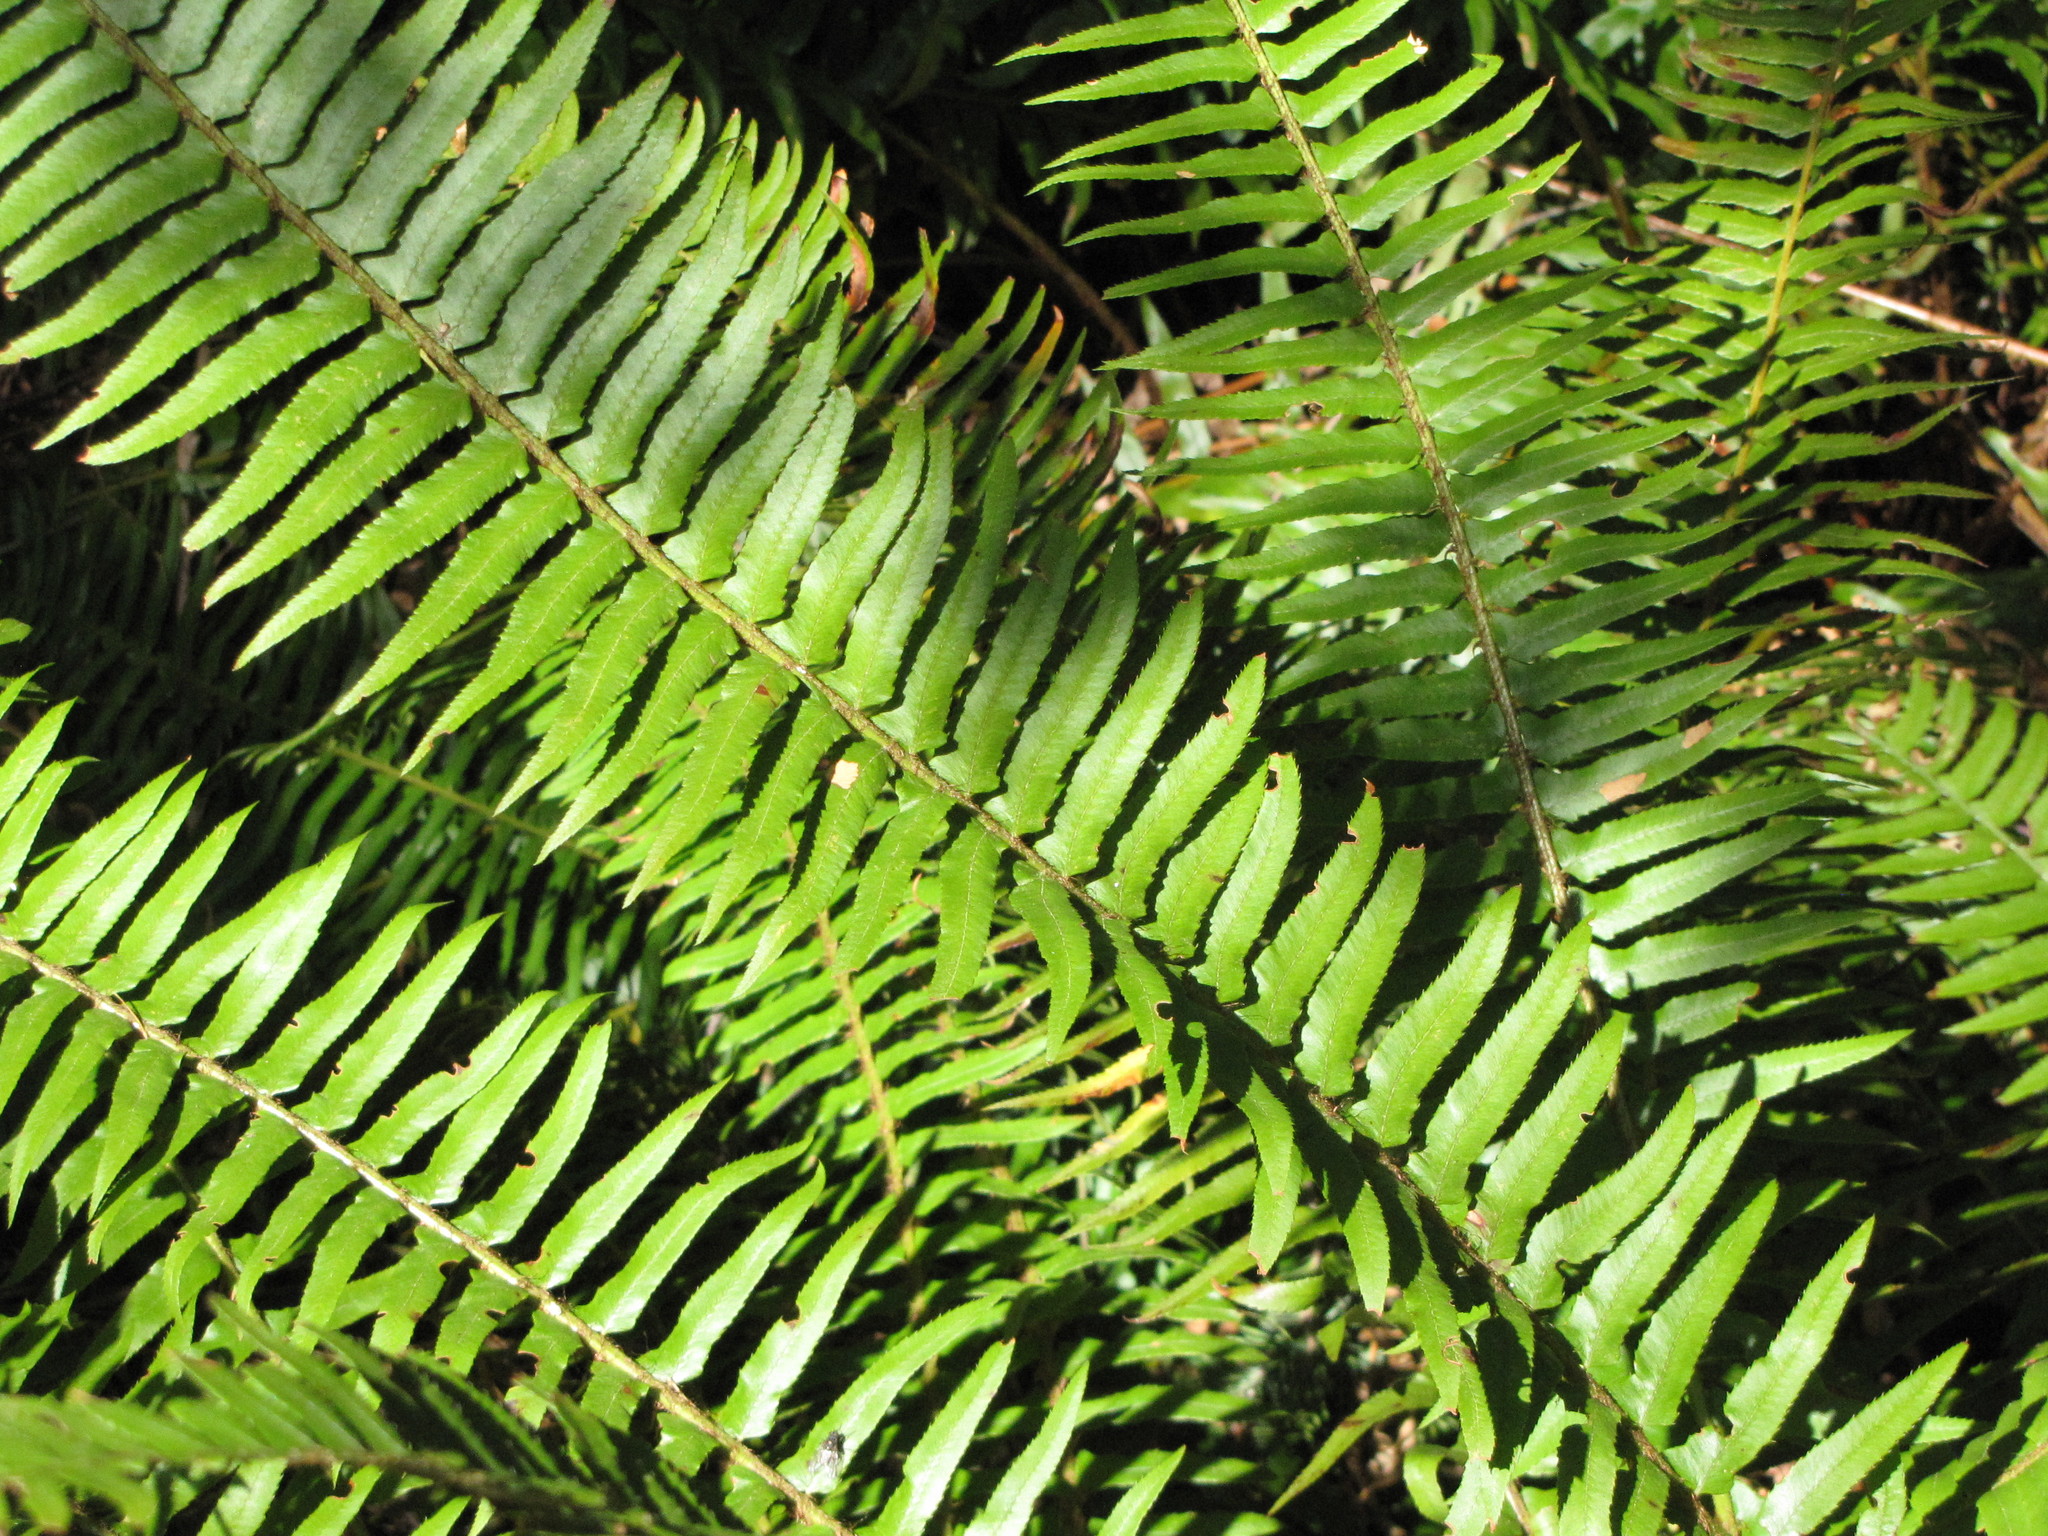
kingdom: Plantae
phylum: Tracheophyta
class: Polypodiopsida
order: Polypodiales
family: Dryopteridaceae
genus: Polystichum
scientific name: Polystichum munitum
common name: Western sword-fern
